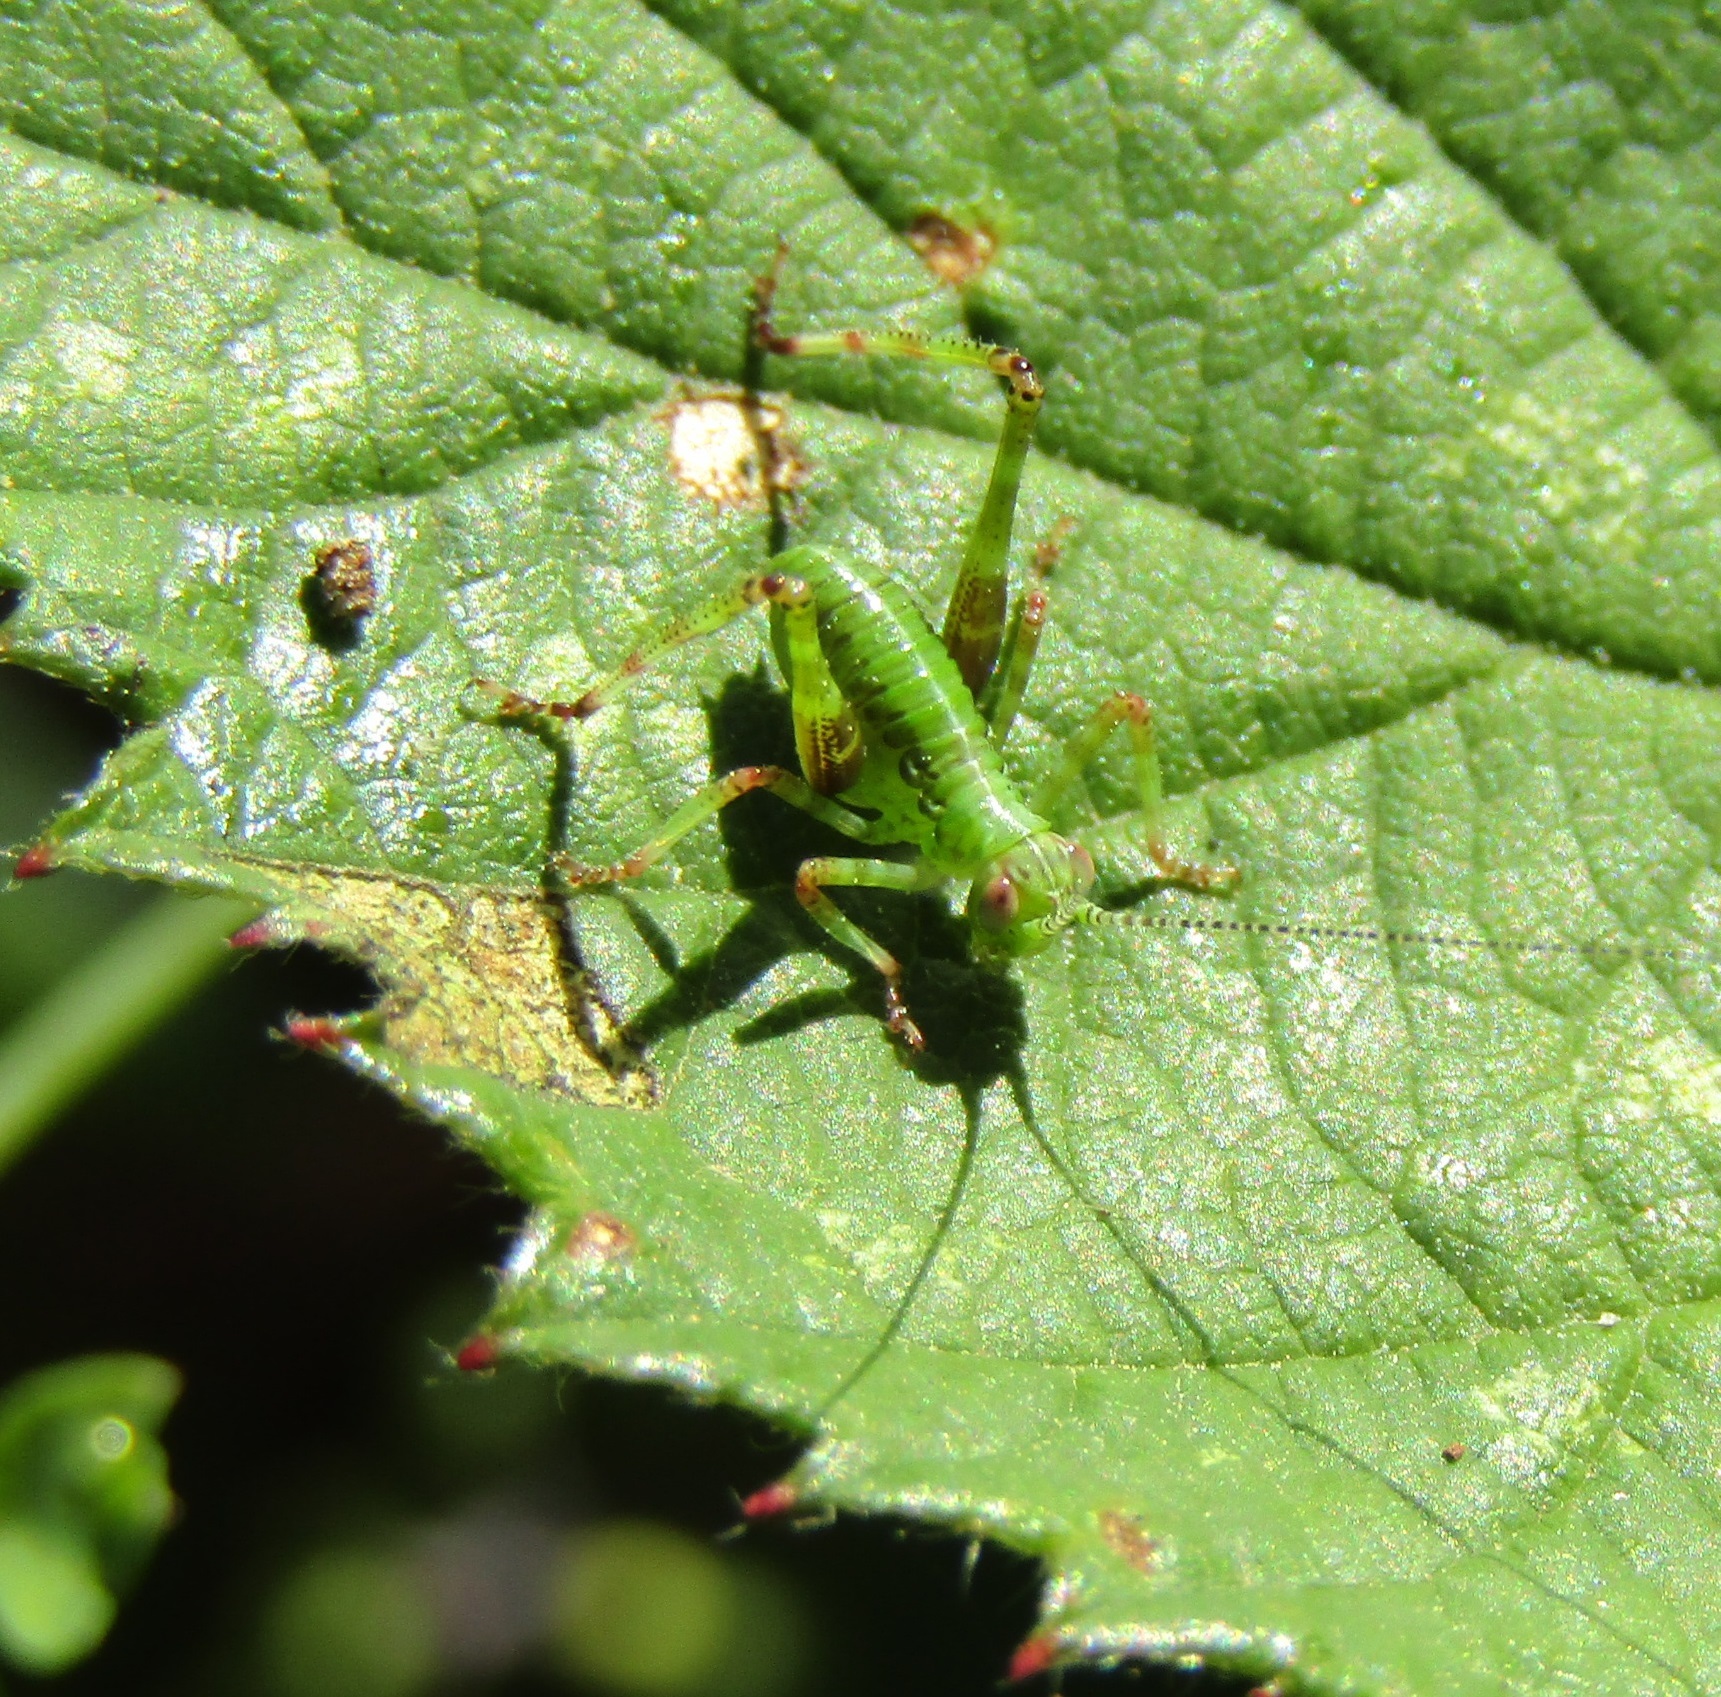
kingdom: Animalia
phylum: Arthropoda
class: Insecta
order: Orthoptera
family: Tettigoniidae
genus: Caedicia
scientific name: Caedicia simplex
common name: Common garden katydid
